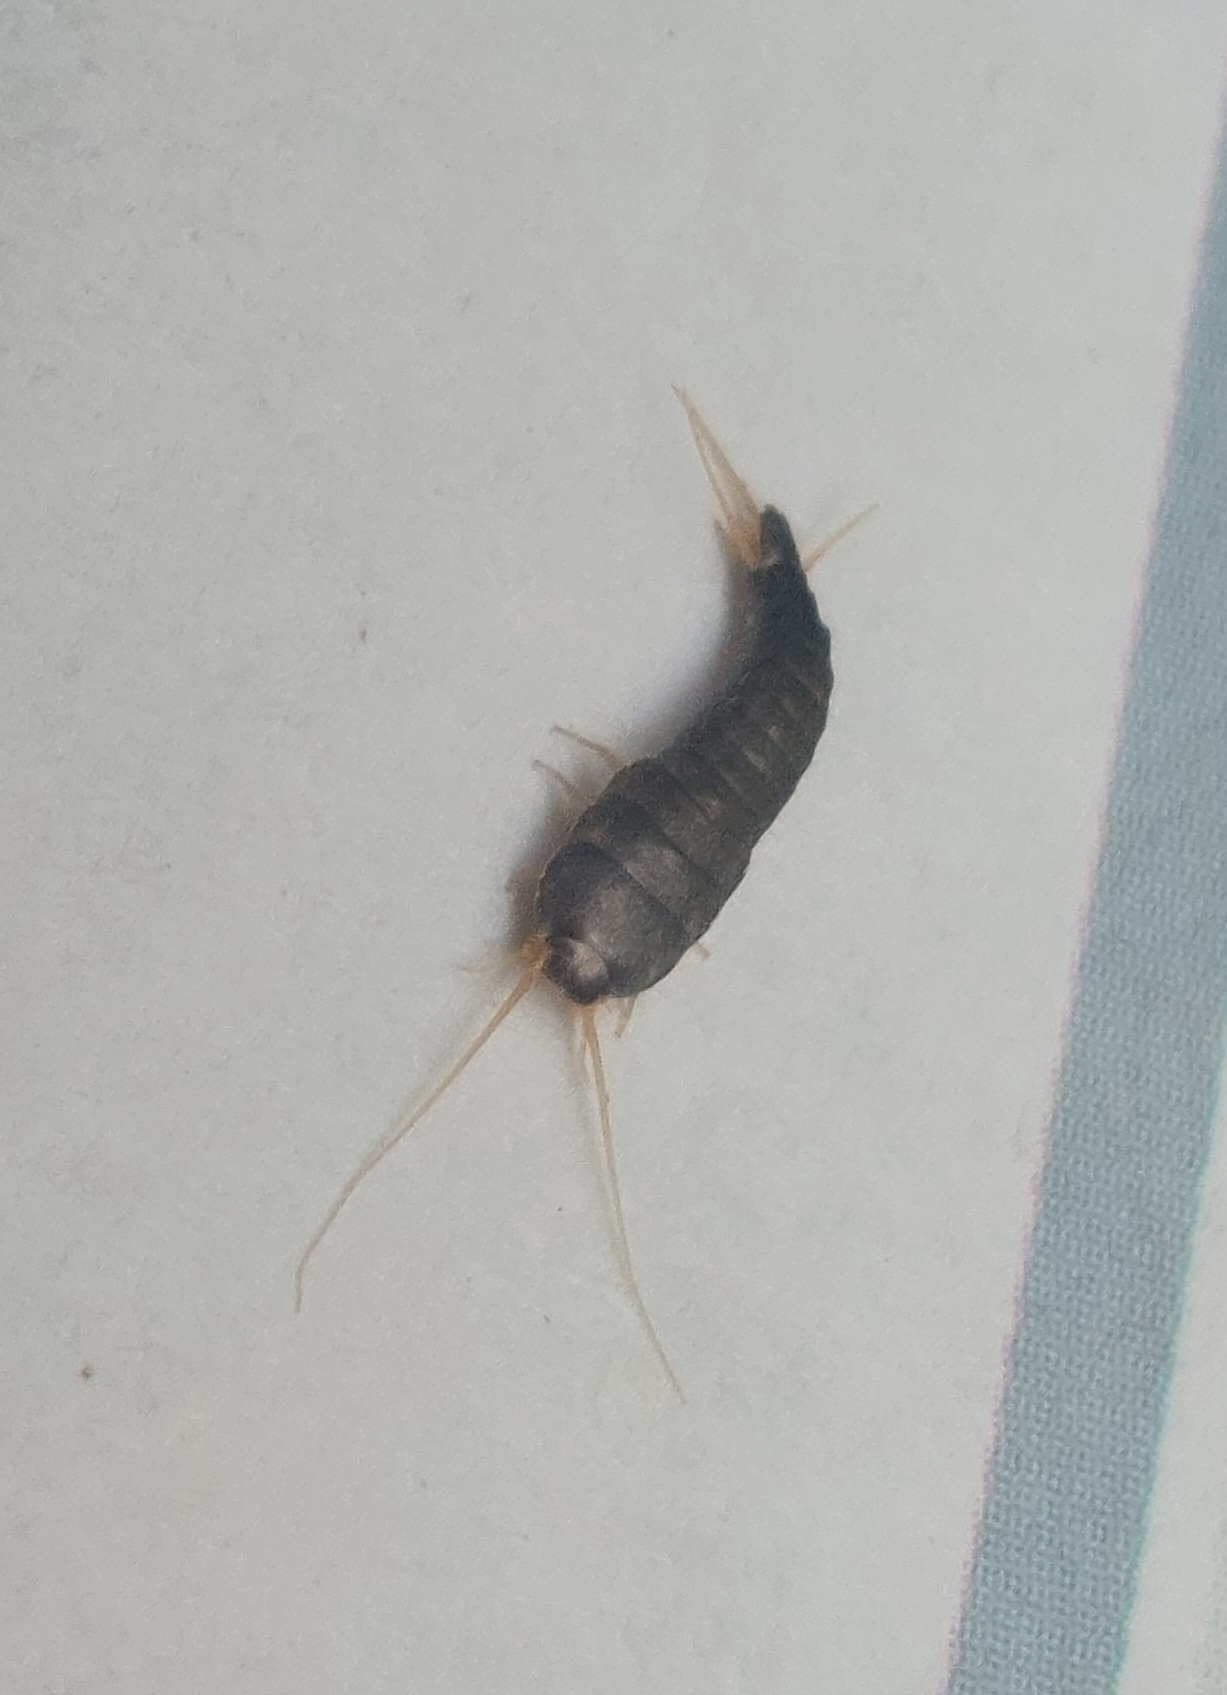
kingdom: Animalia
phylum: Arthropoda
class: Insecta
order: Zygentoma
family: Lepismatidae
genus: Lepisma
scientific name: Lepisma saccharinum
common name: Silverfish
